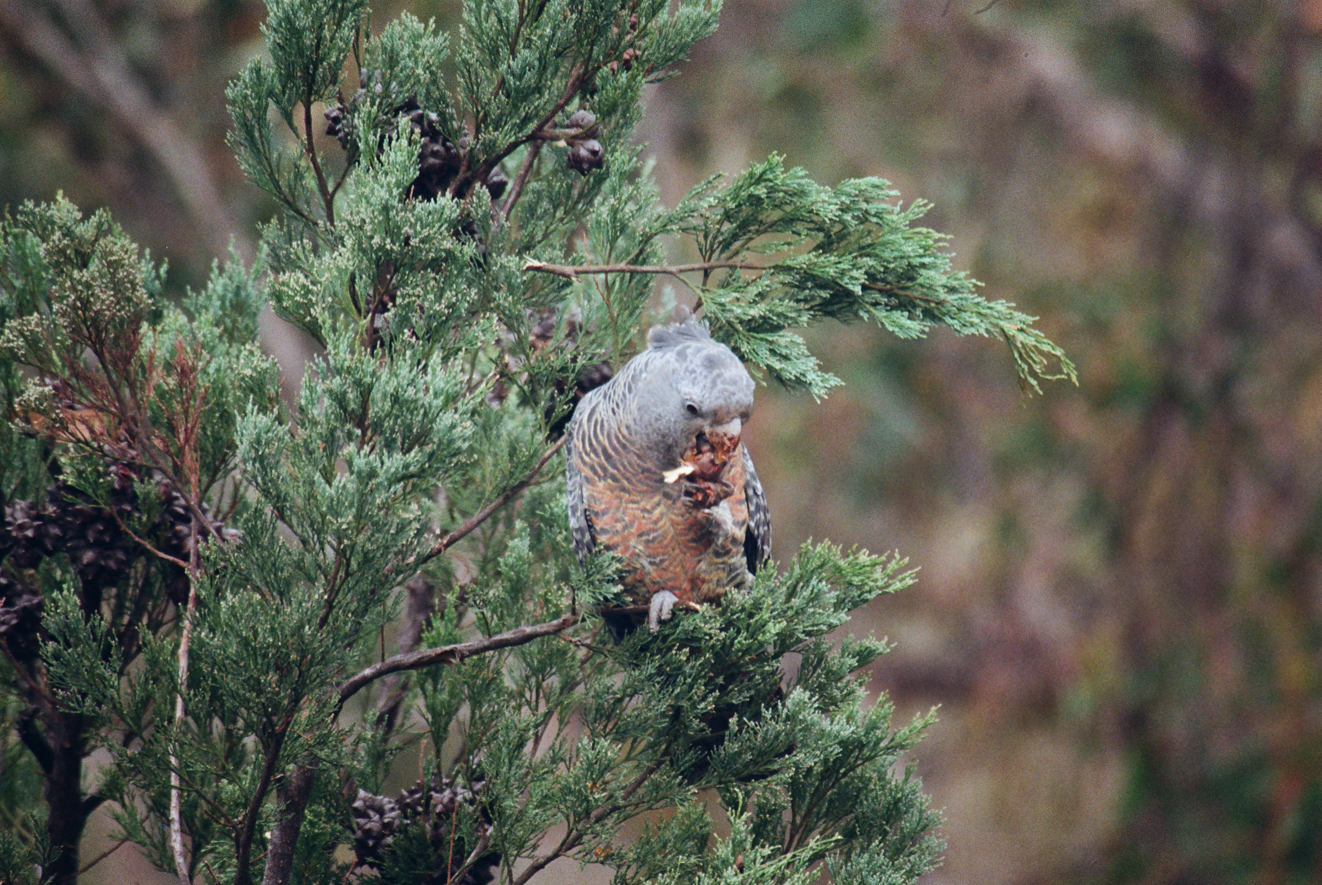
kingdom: Animalia
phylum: Chordata
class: Aves
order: Psittaciformes
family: Psittacidae
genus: Callocephalon
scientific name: Callocephalon fimbriatum
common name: Gang-gang cockatoo
